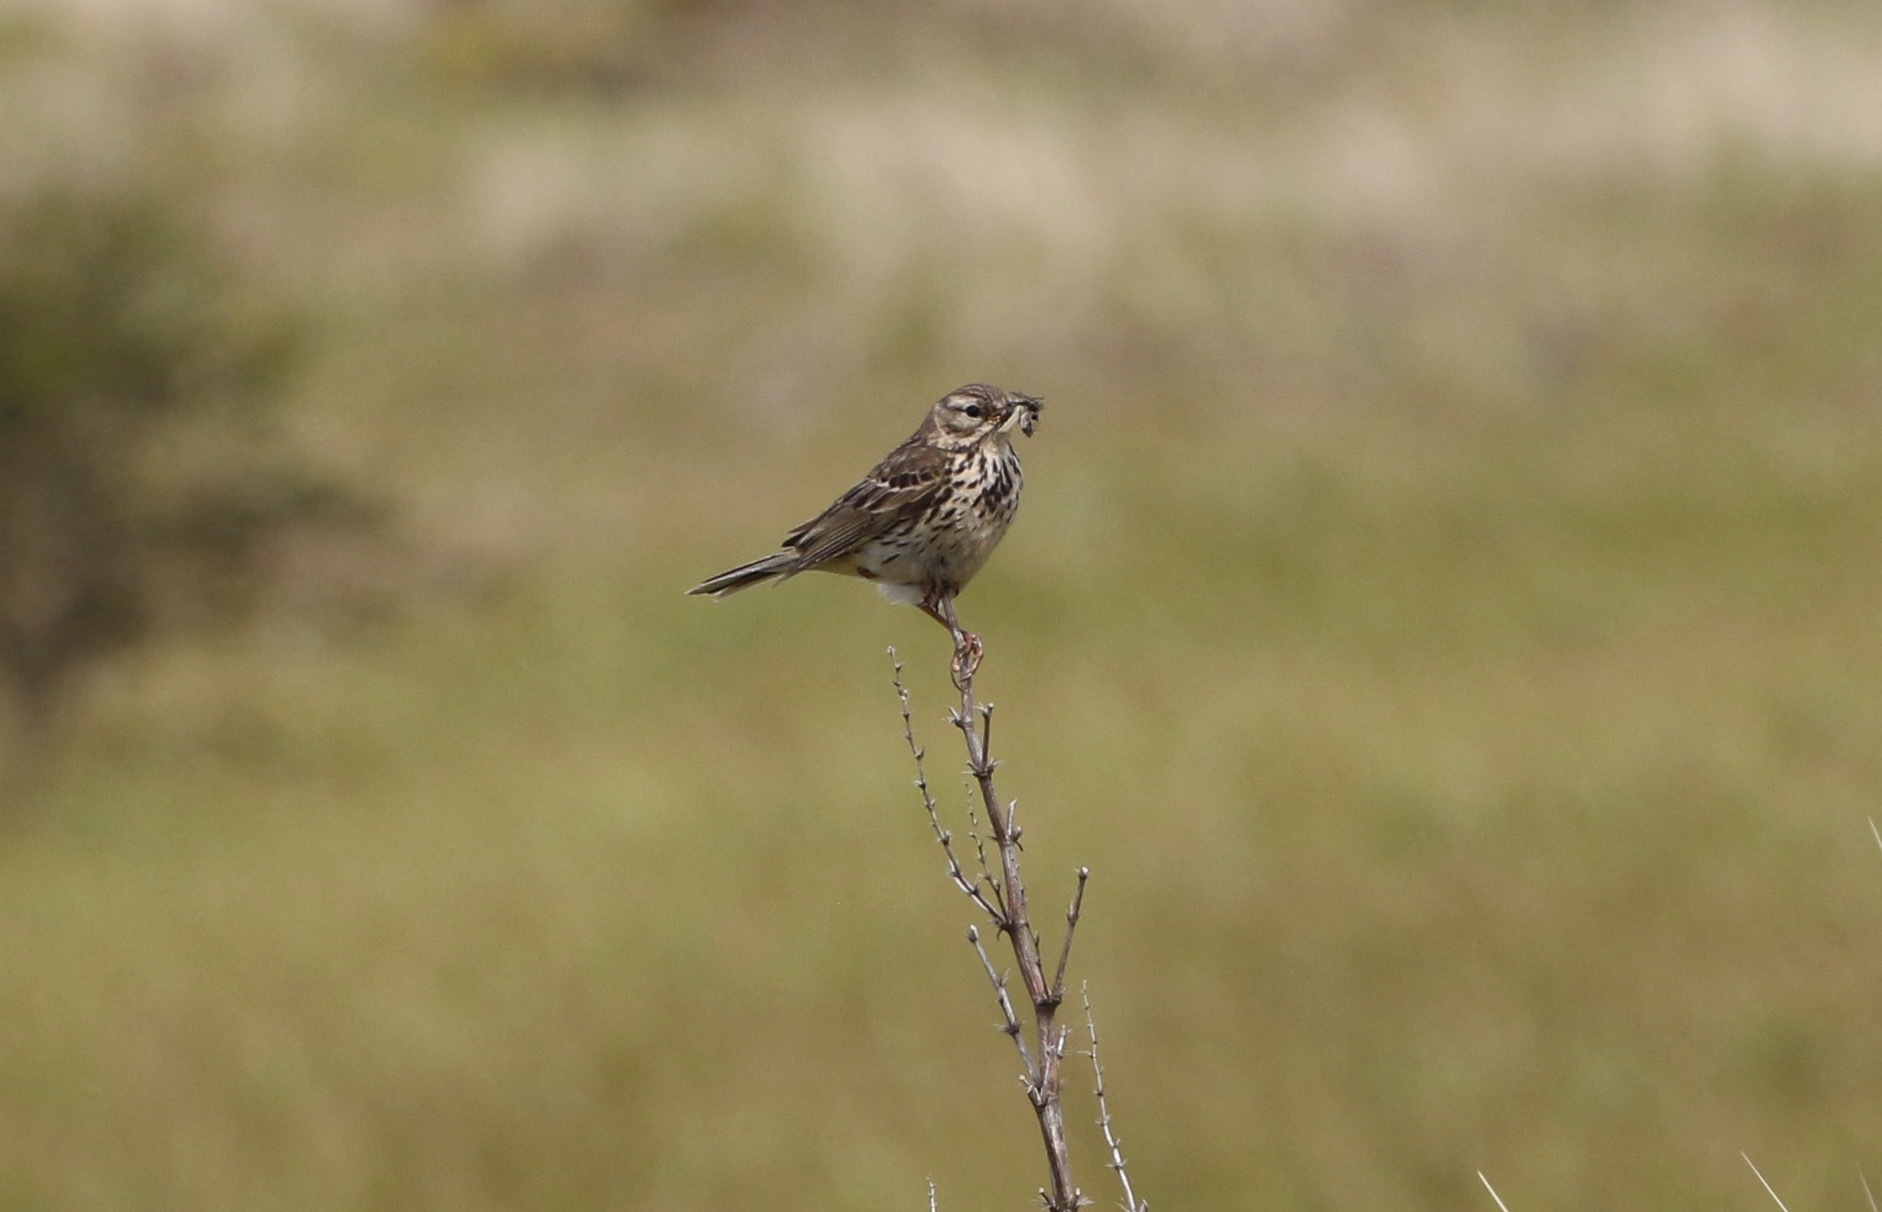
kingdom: Animalia
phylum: Chordata
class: Aves
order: Passeriformes
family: Motacillidae
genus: Anthus
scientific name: Anthus pratensis
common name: Meadow pipit
